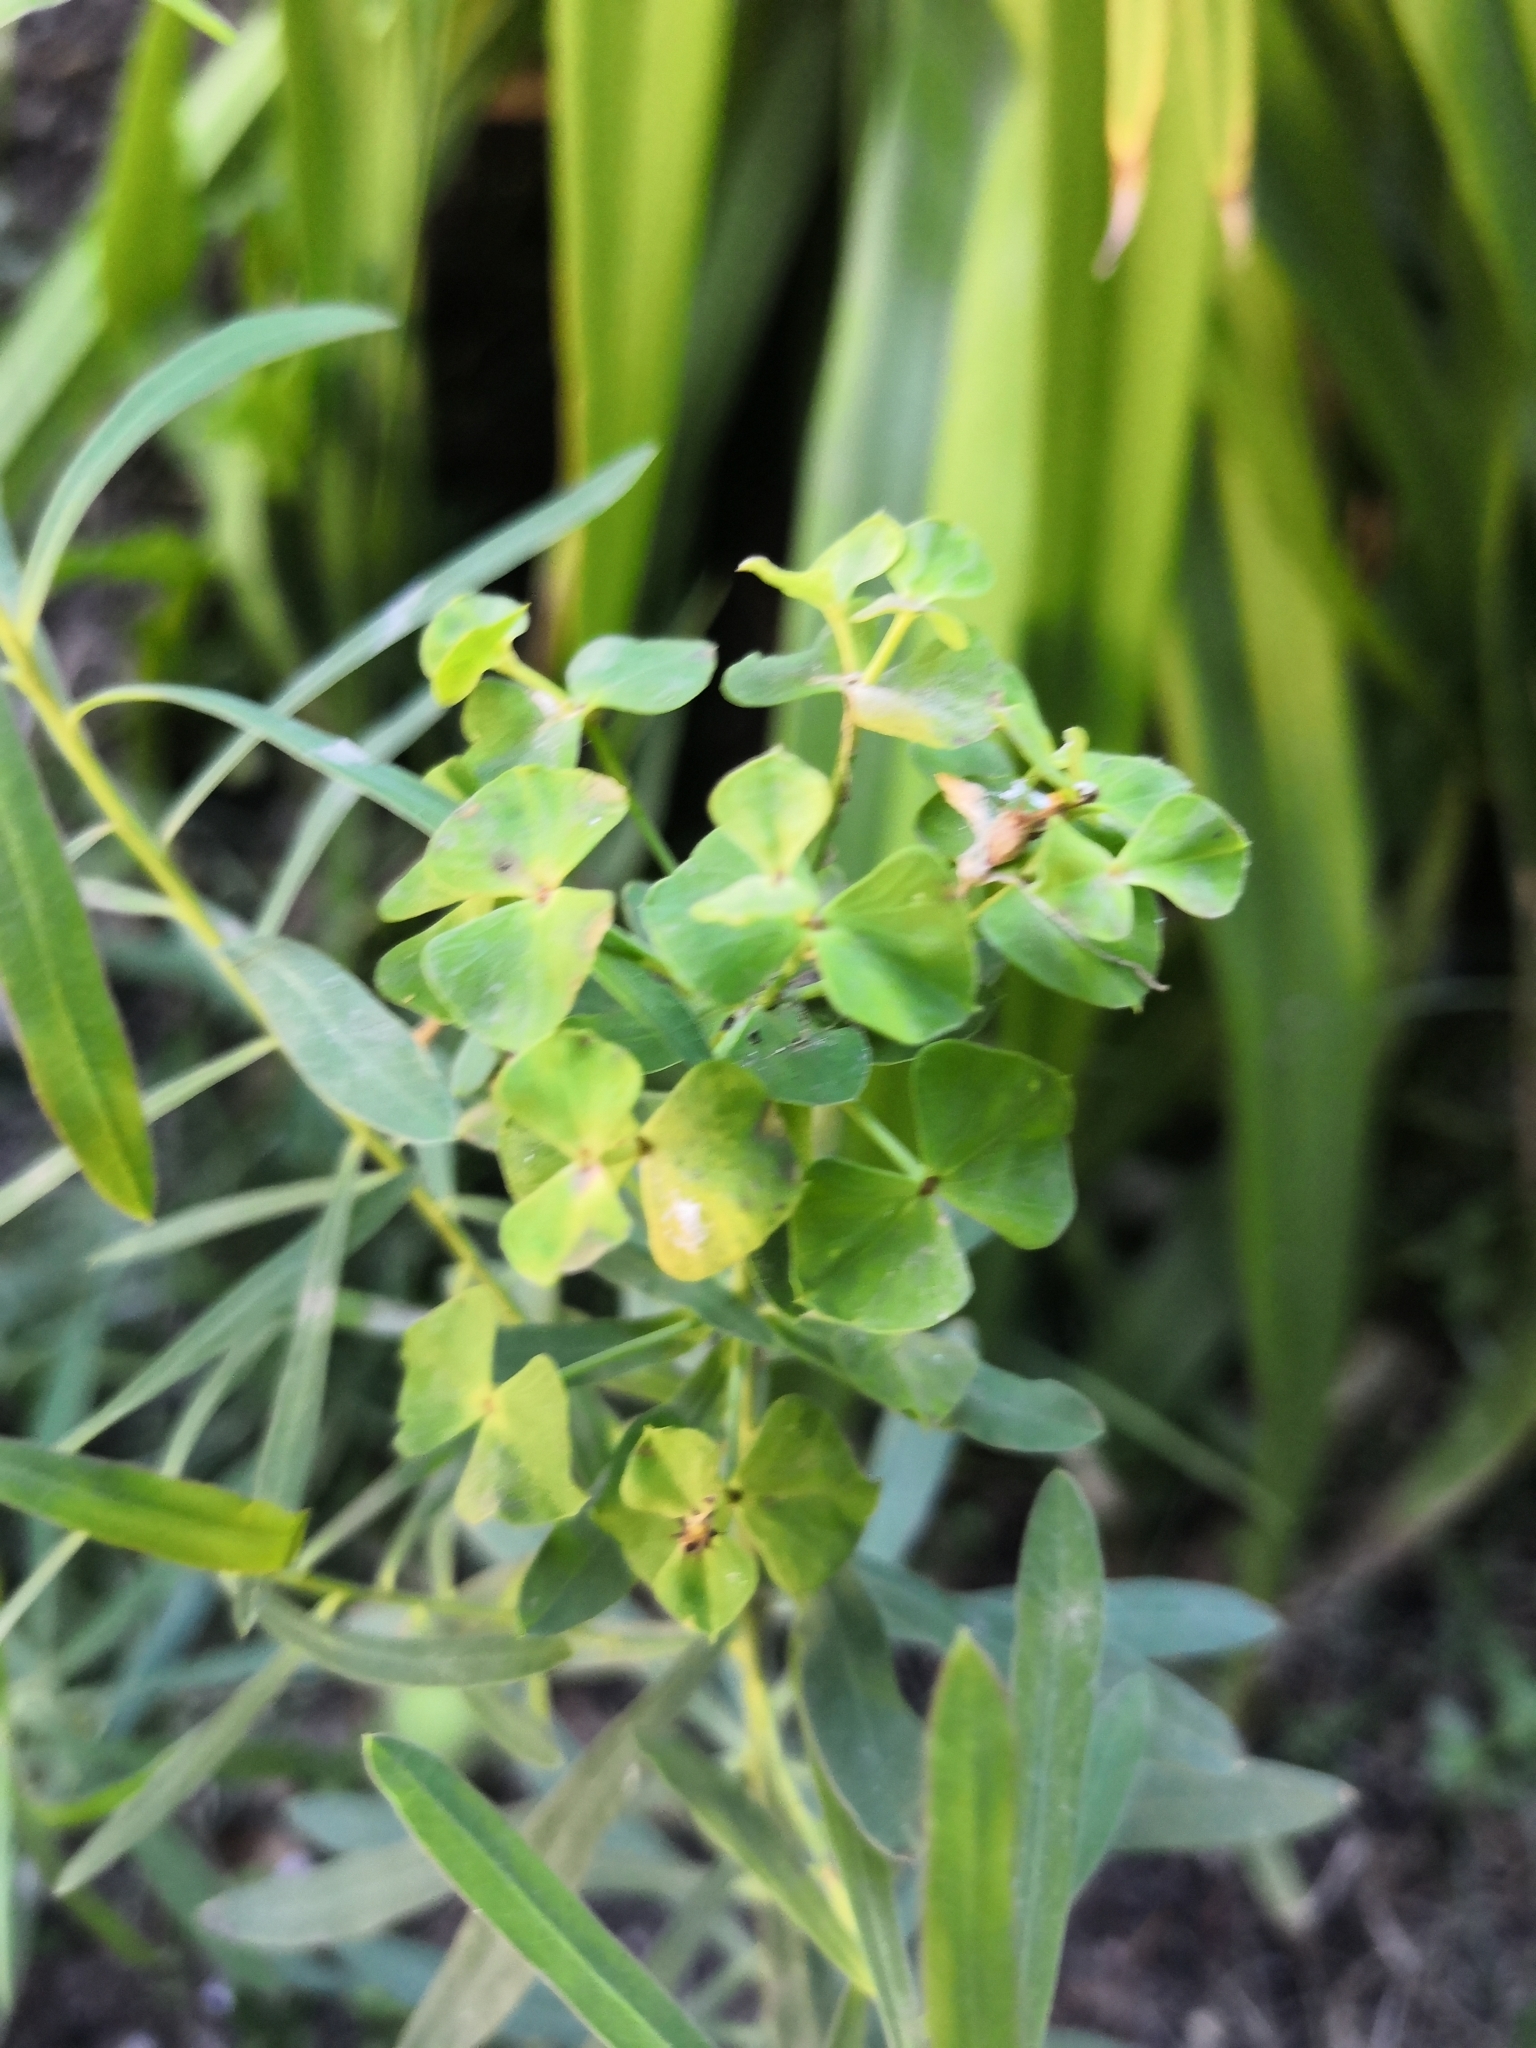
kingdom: Plantae
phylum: Tracheophyta
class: Magnoliopsida
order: Malpighiales
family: Euphorbiaceae
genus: Euphorbia
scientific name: Euphorbia virgata
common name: Leafy spurge
